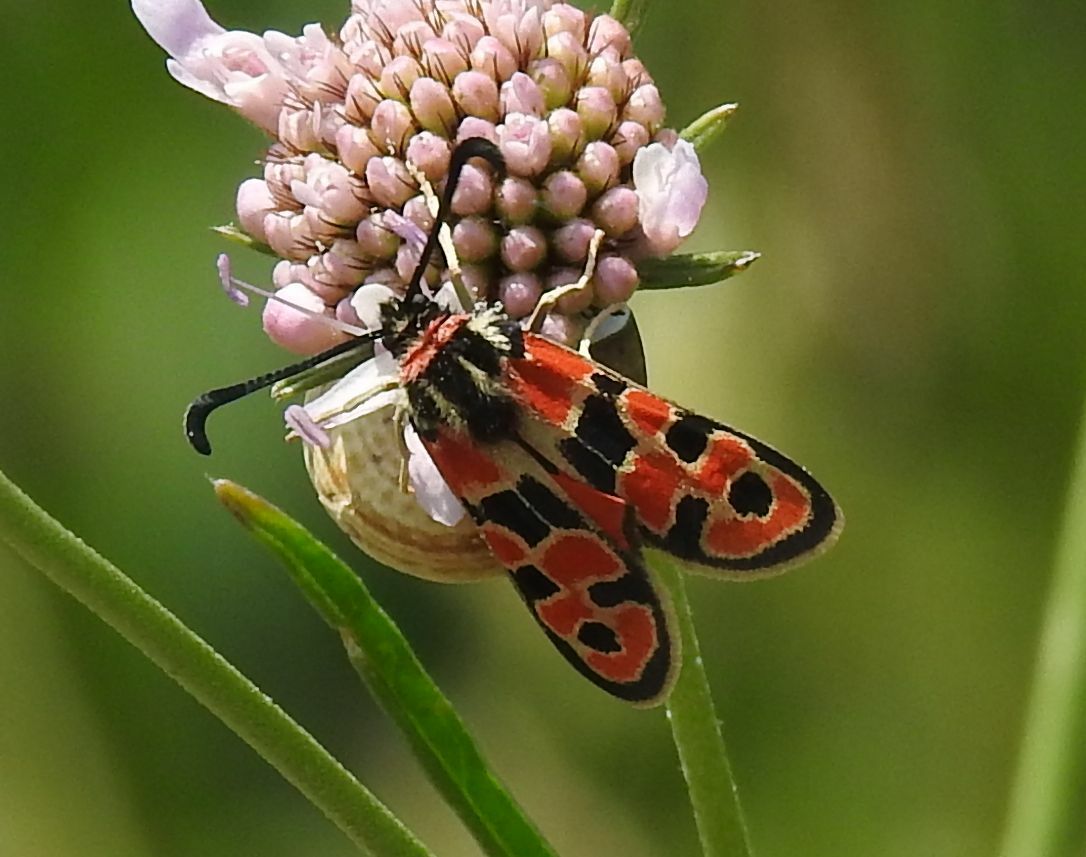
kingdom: Animalia
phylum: Arthropoda
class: Insecta
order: Lepidoptera
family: Zygaenidae
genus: Zygaena
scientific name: Zygaena fausta
